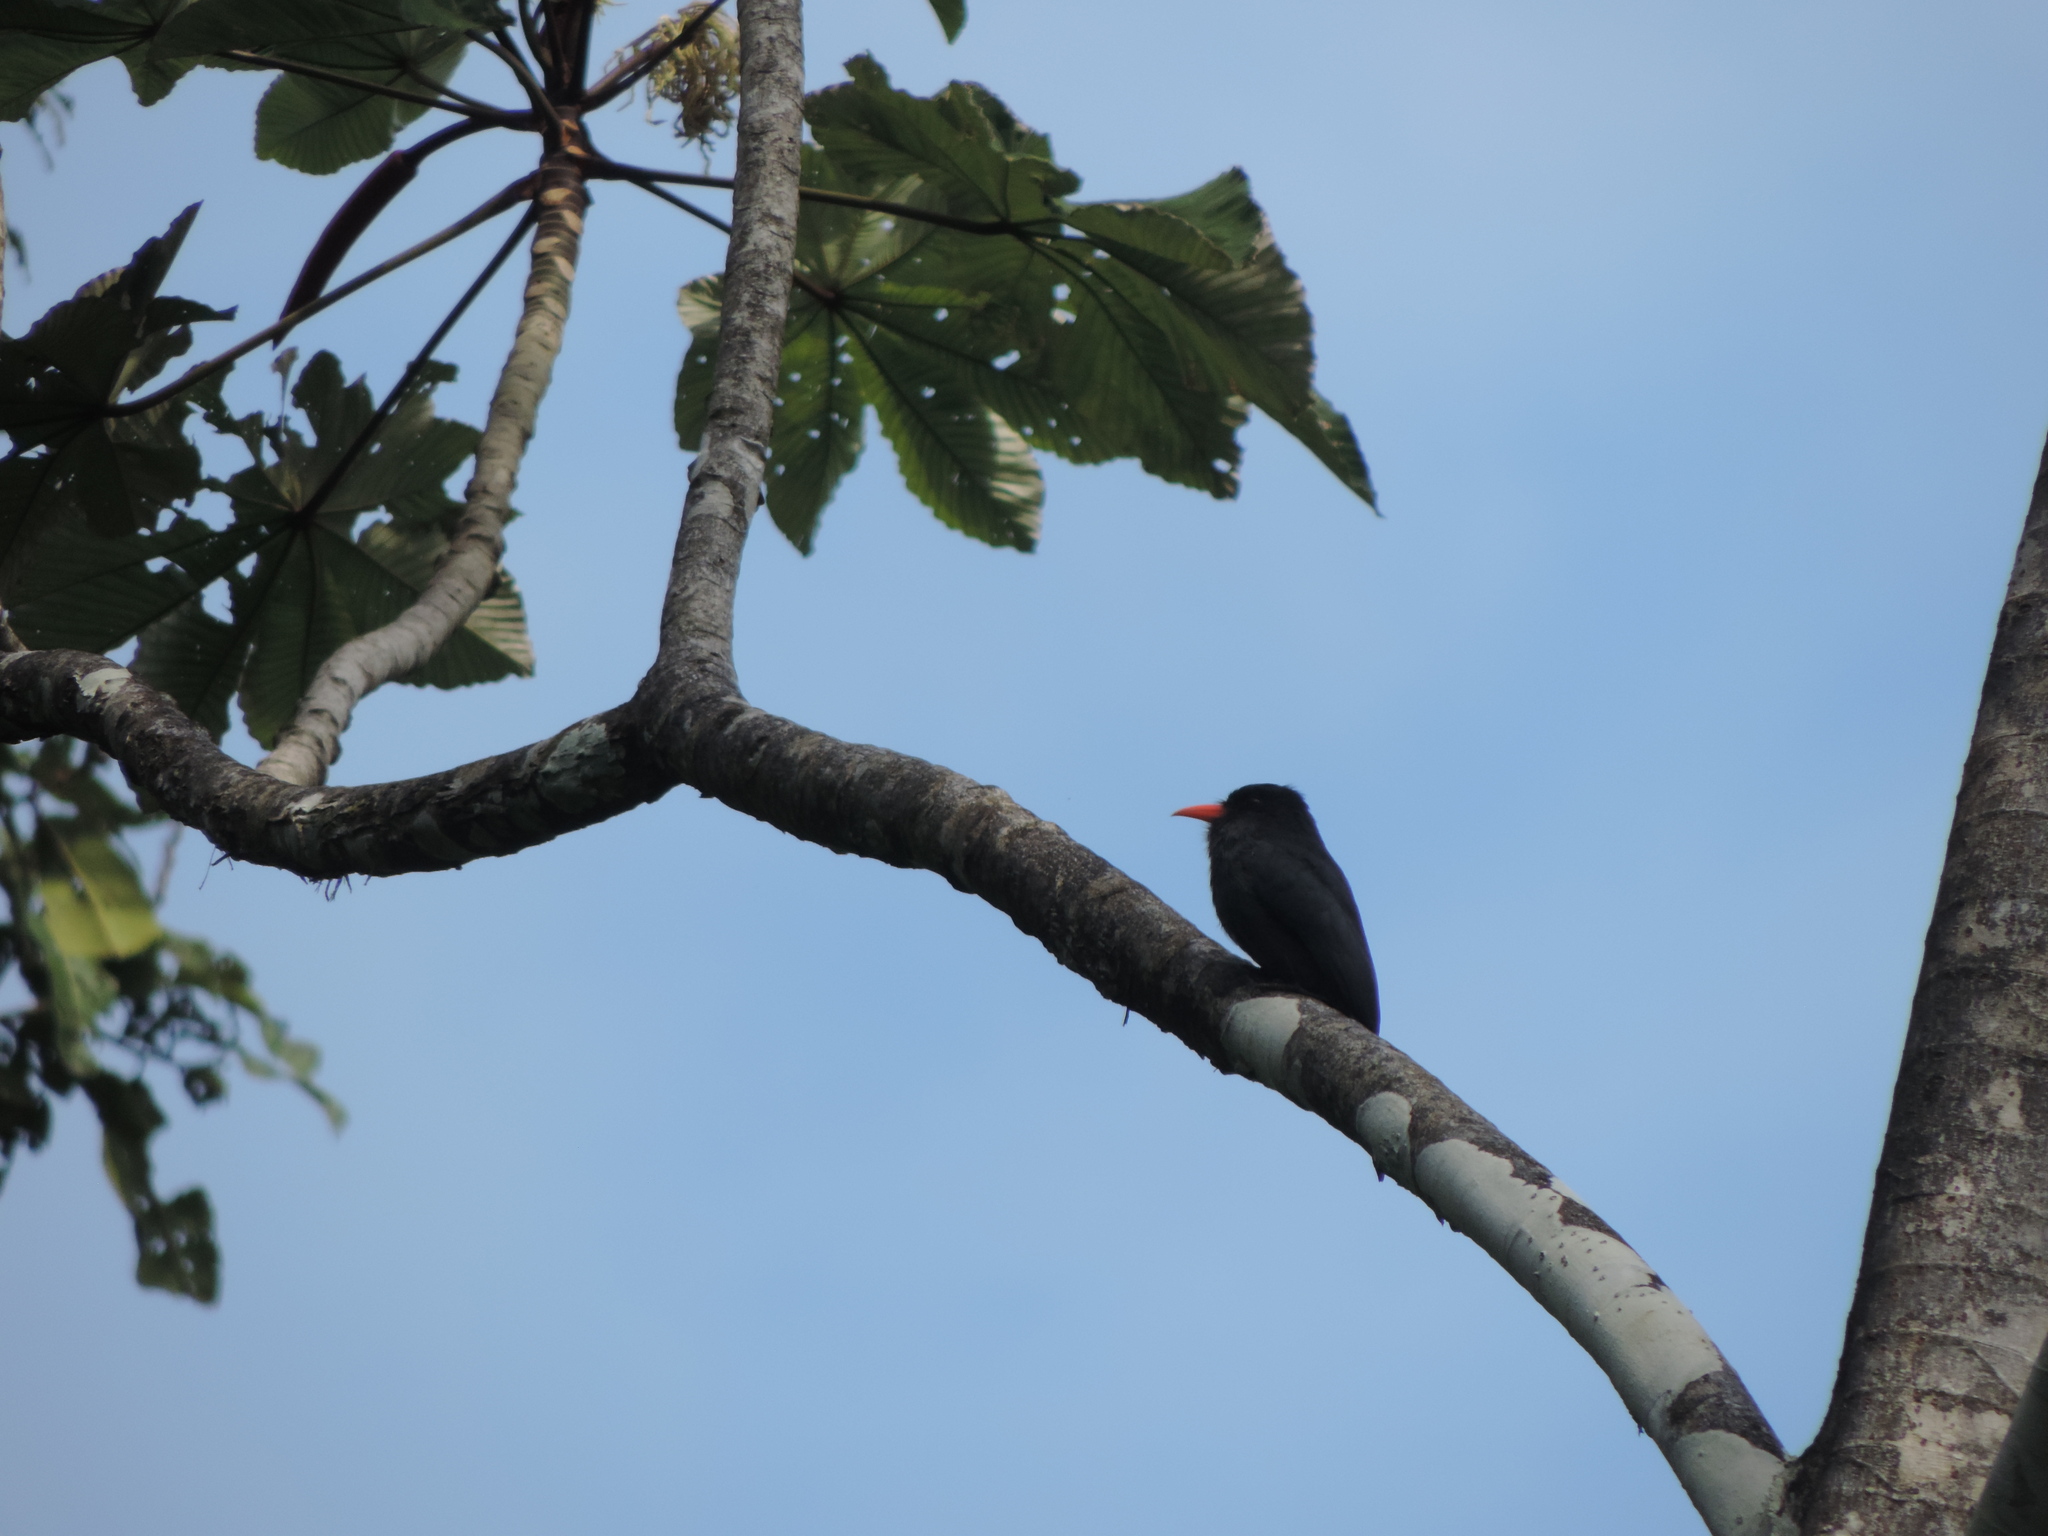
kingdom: Animalia
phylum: Chordata
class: Aves
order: Piciformes
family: Bucconidae
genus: Monasa
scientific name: Monasa nigrifrons
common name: Black-fronted nunbird
